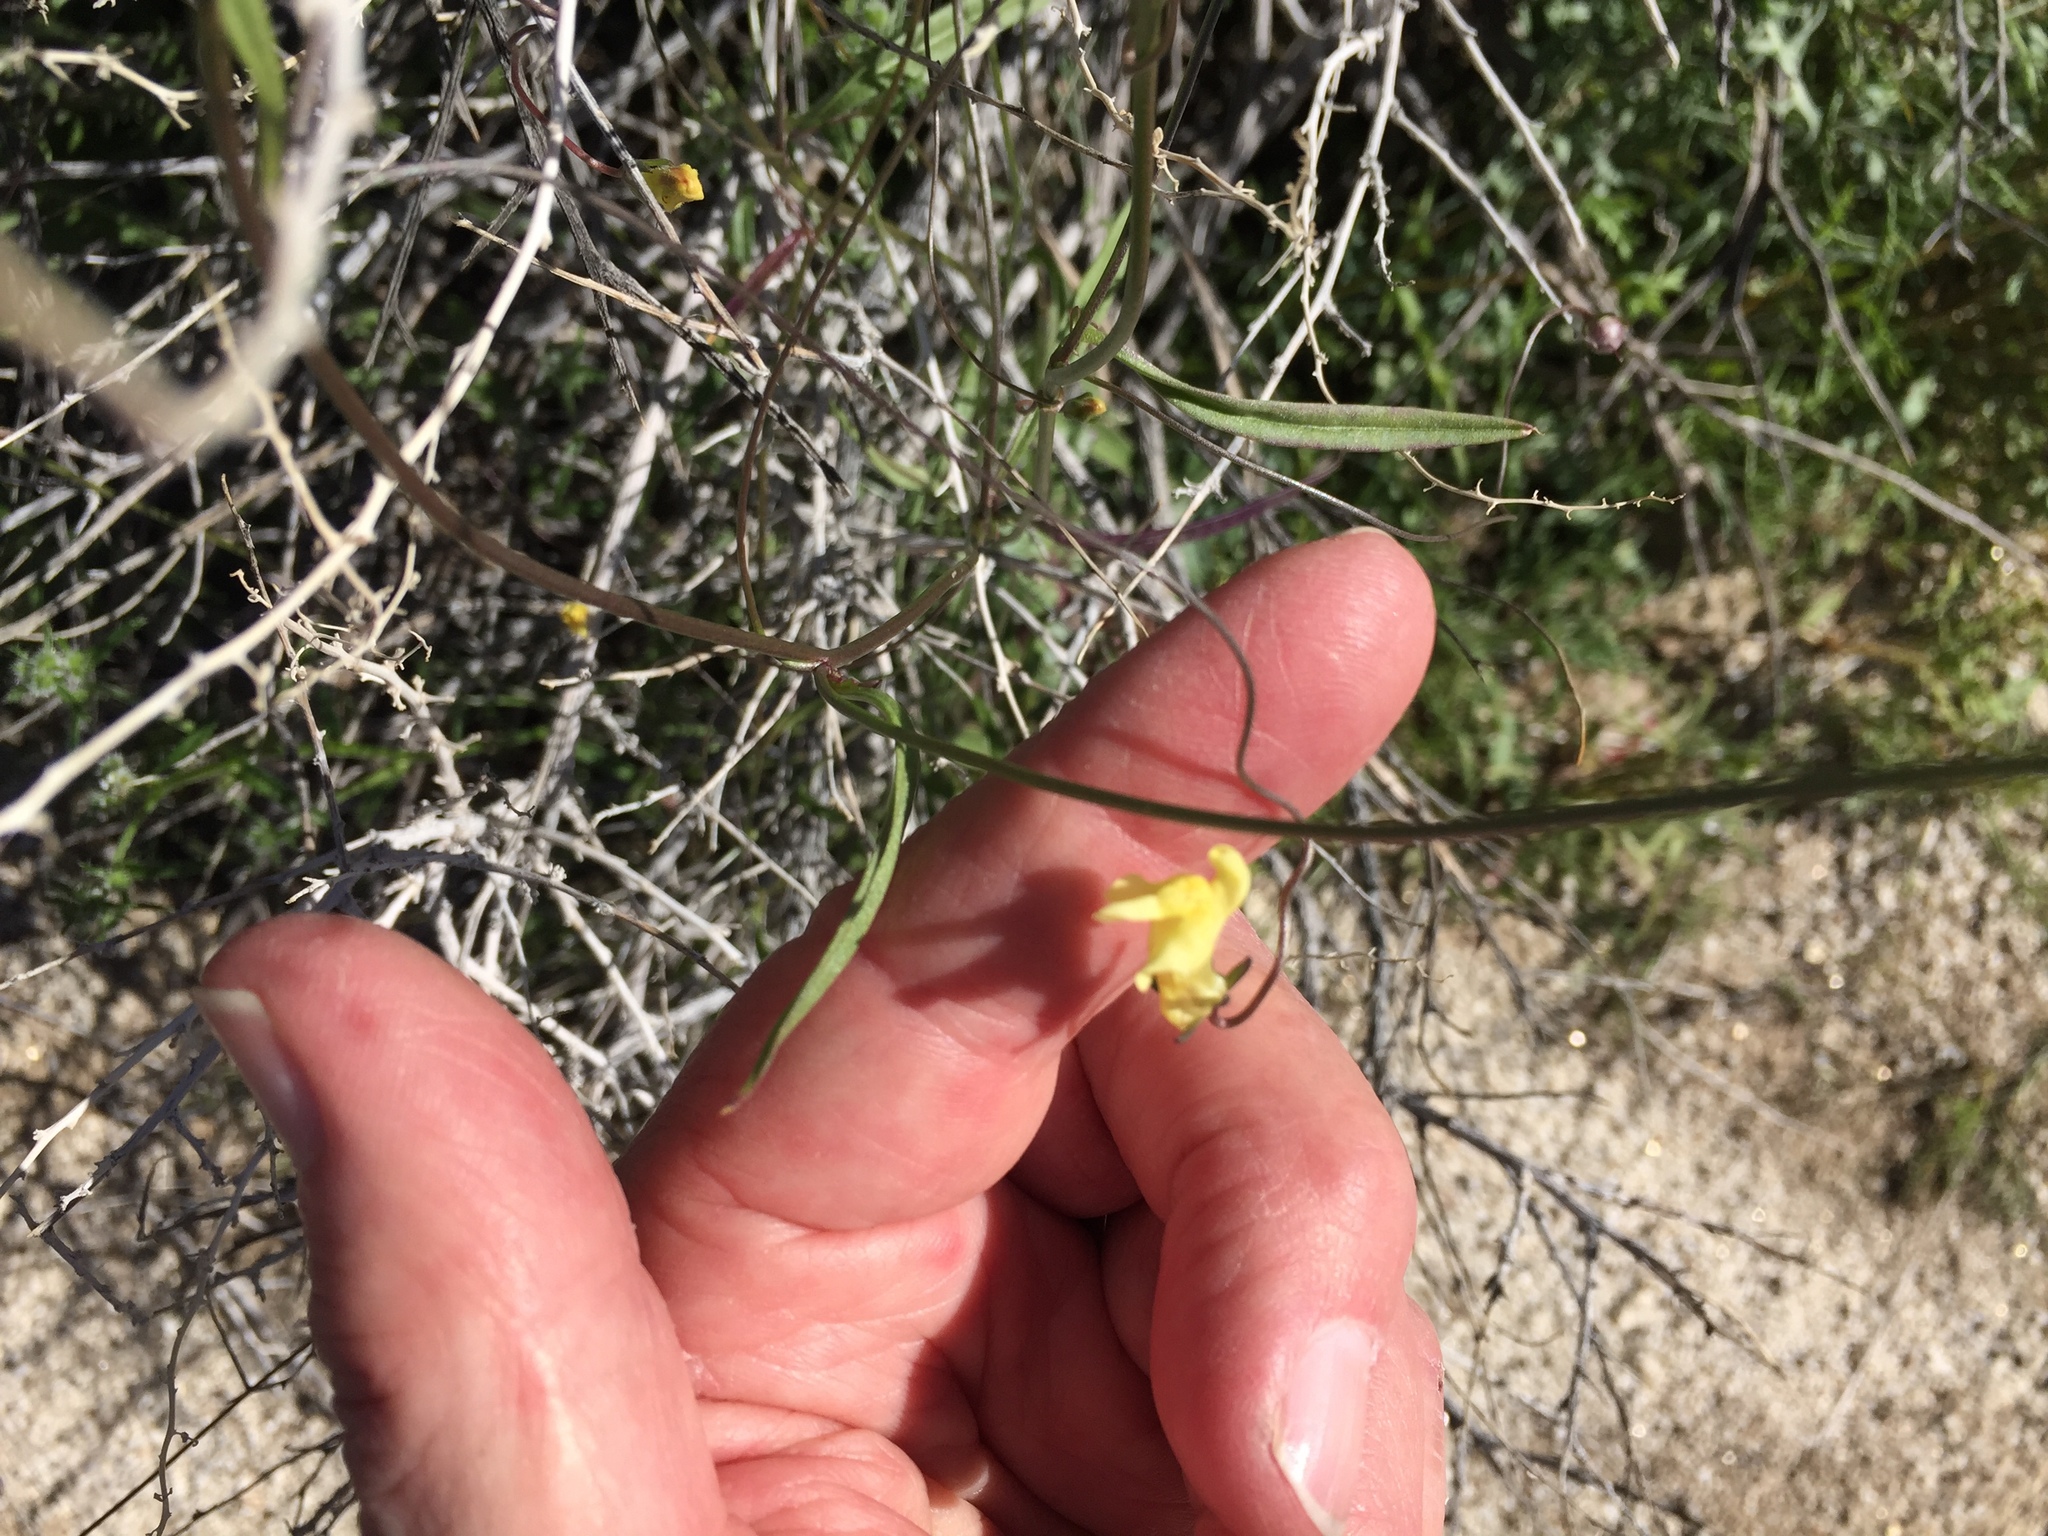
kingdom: Plantae
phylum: Tracheophyta
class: Magnoliopsida
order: Lamiales
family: Plantaginaceae
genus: Neogaerrhinum
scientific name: Neogaerrhinum filipes
